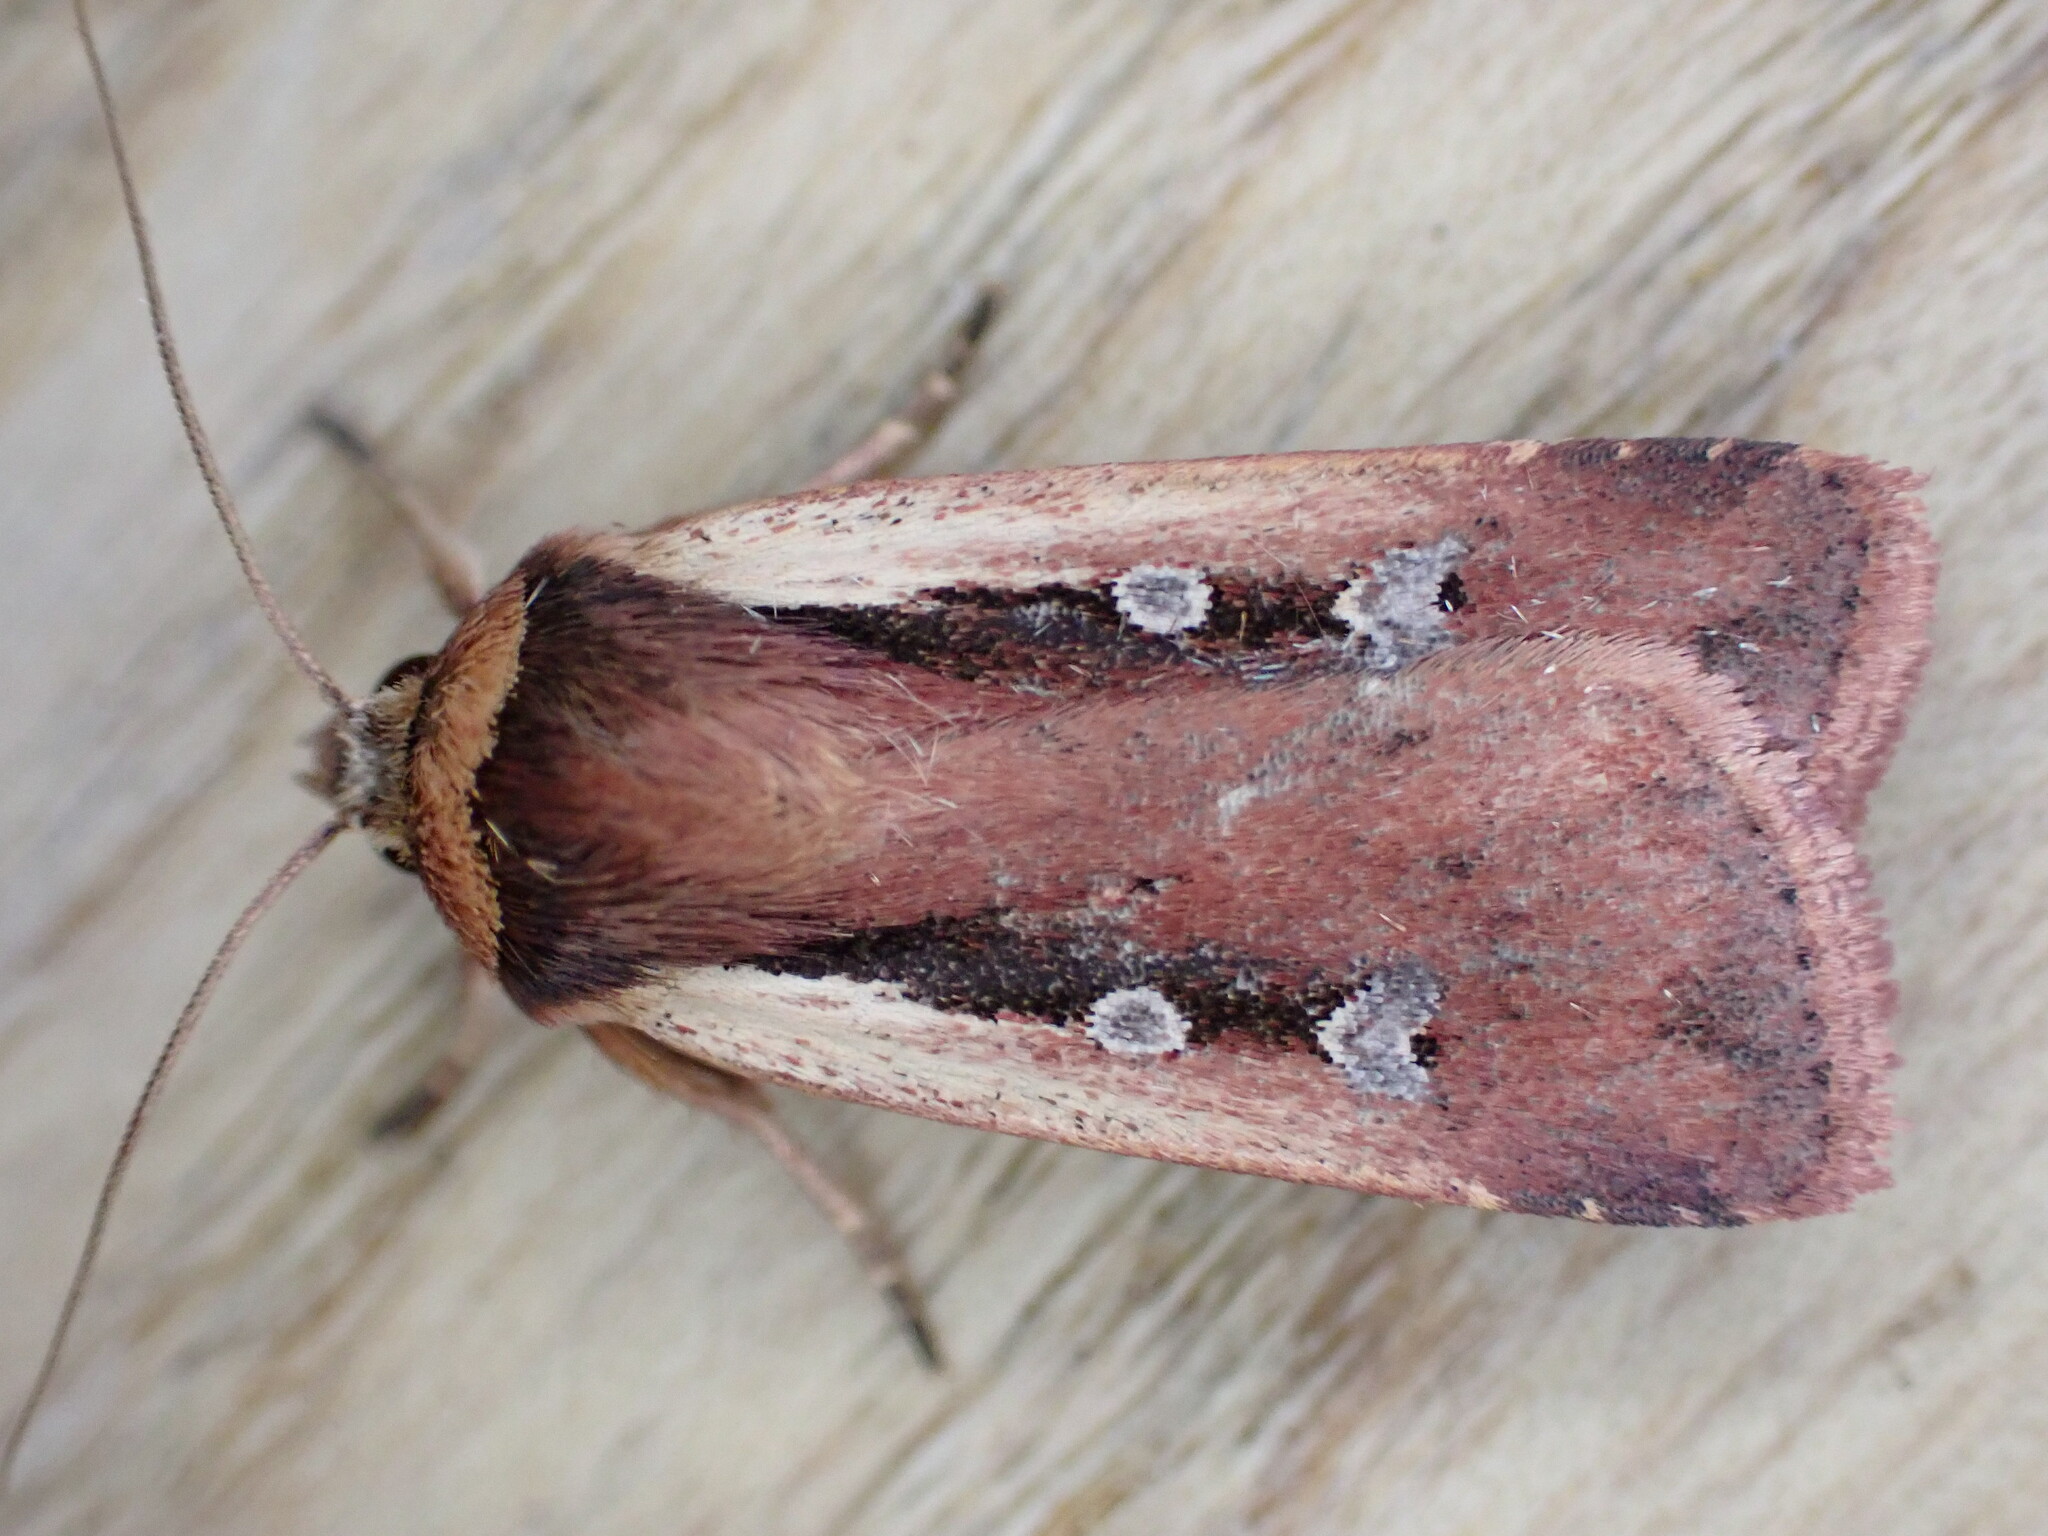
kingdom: Animalia
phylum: Arthropoda
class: Insecta
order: Lepidoptera
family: Noctuidae
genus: Ochropleura
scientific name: Ochropleura plecta
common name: Flame shoulder
